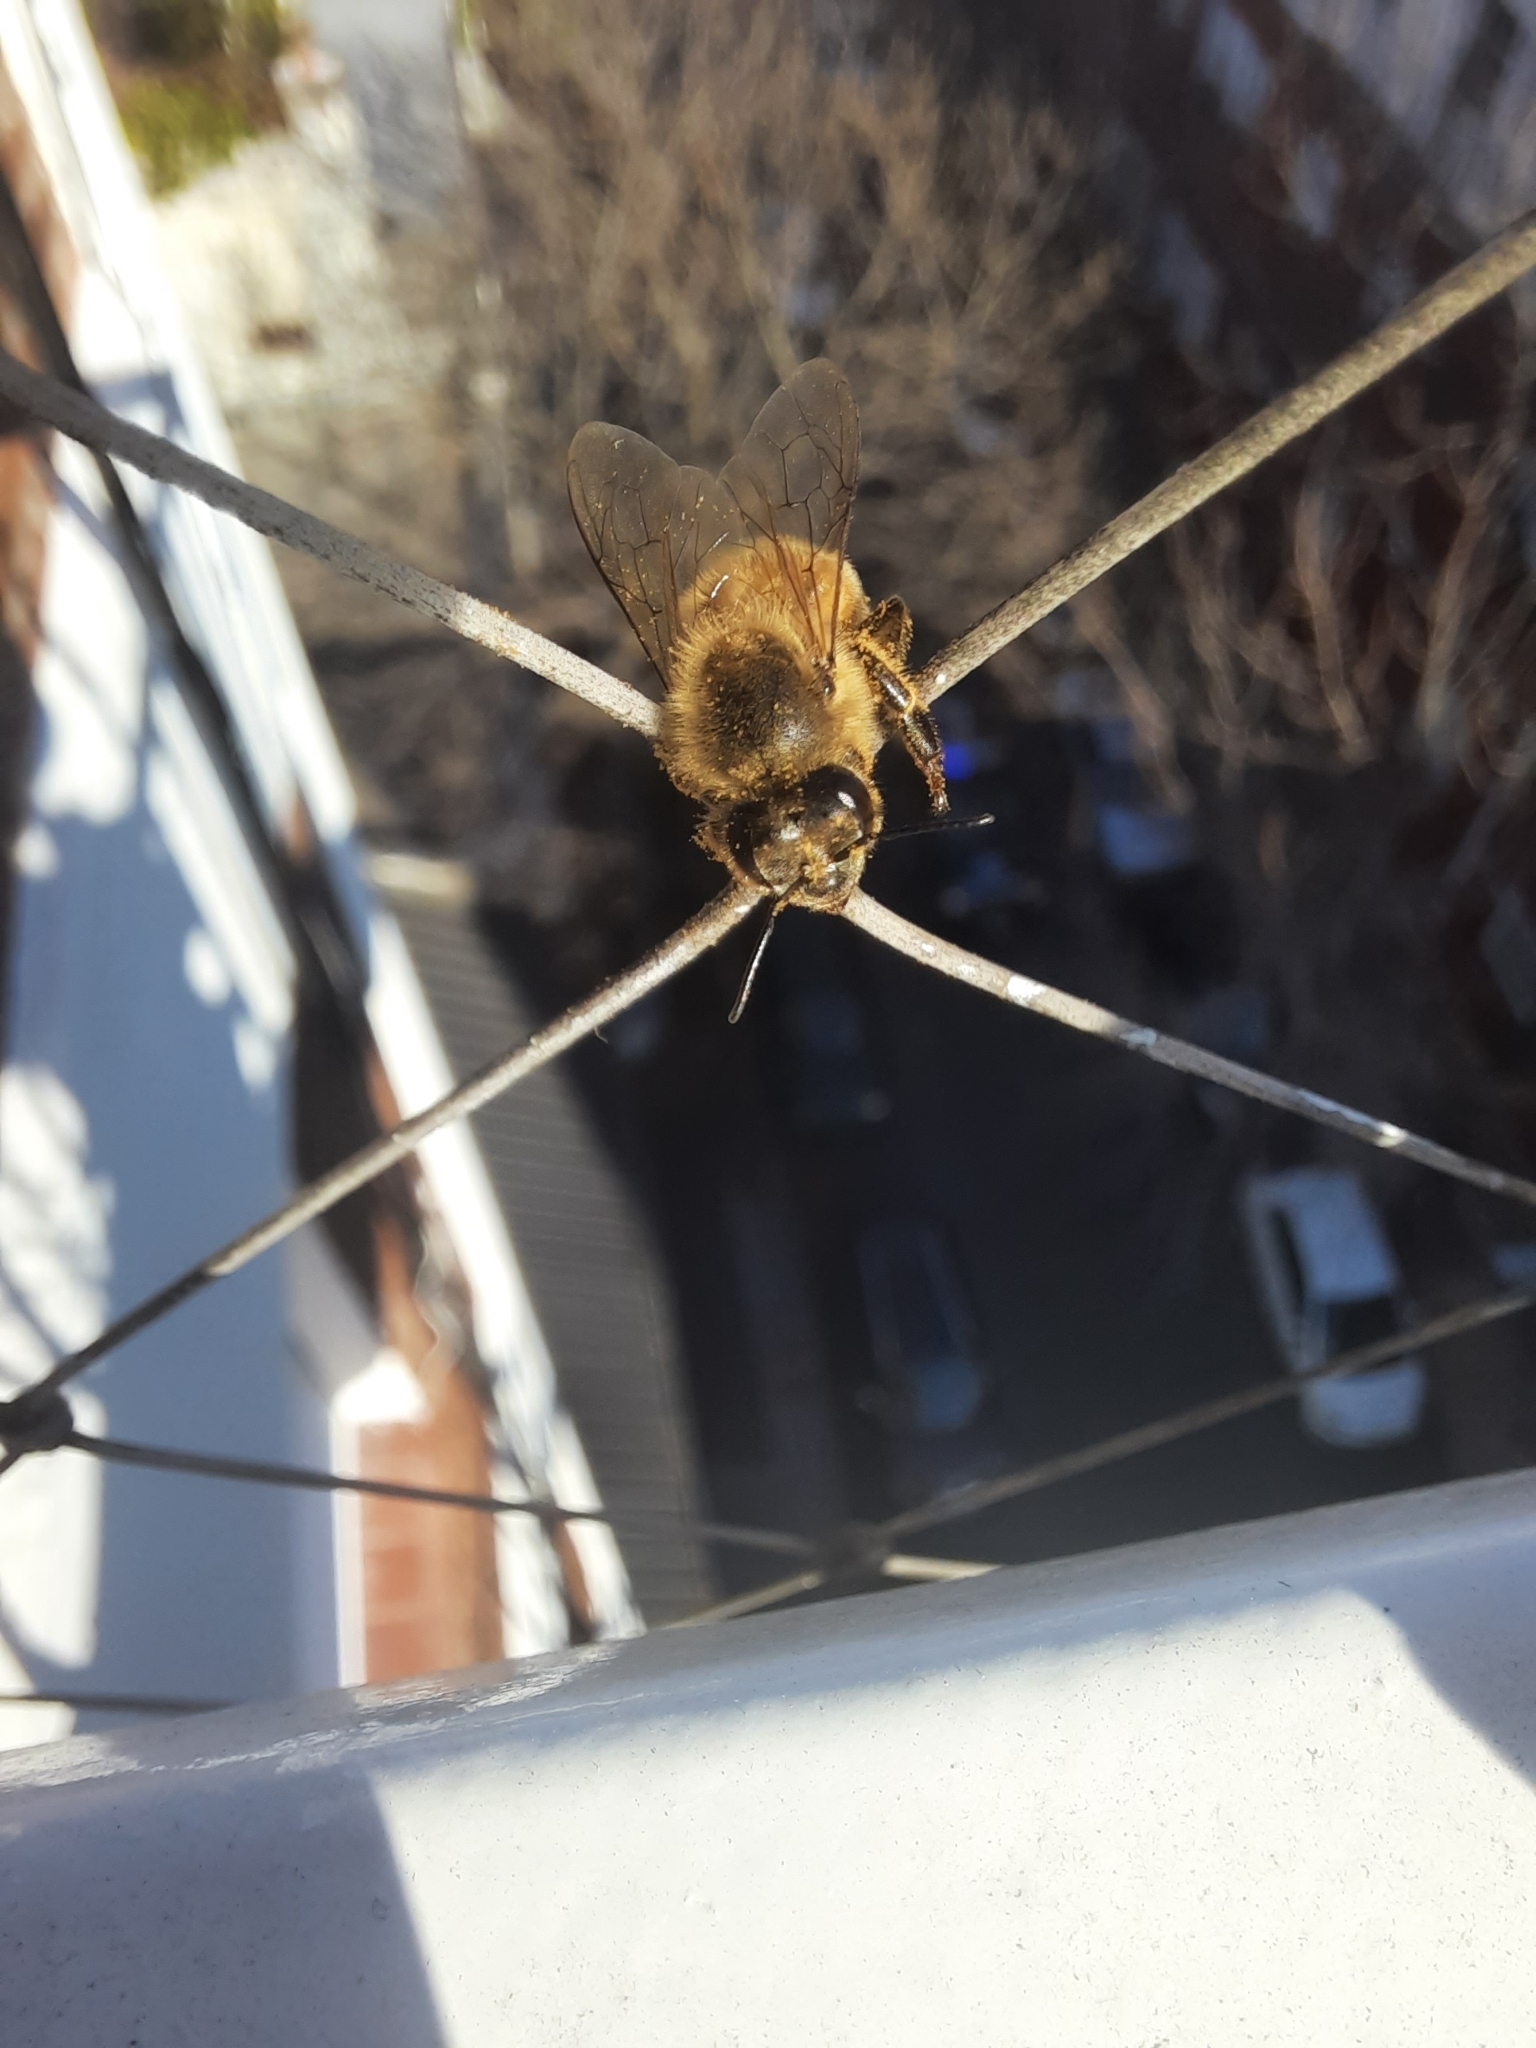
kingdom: Animalia
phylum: Arthropoda
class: Insecta
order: Hymenoptera
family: Apidae
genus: Apis
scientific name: Apis mellifera
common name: Honey bee
